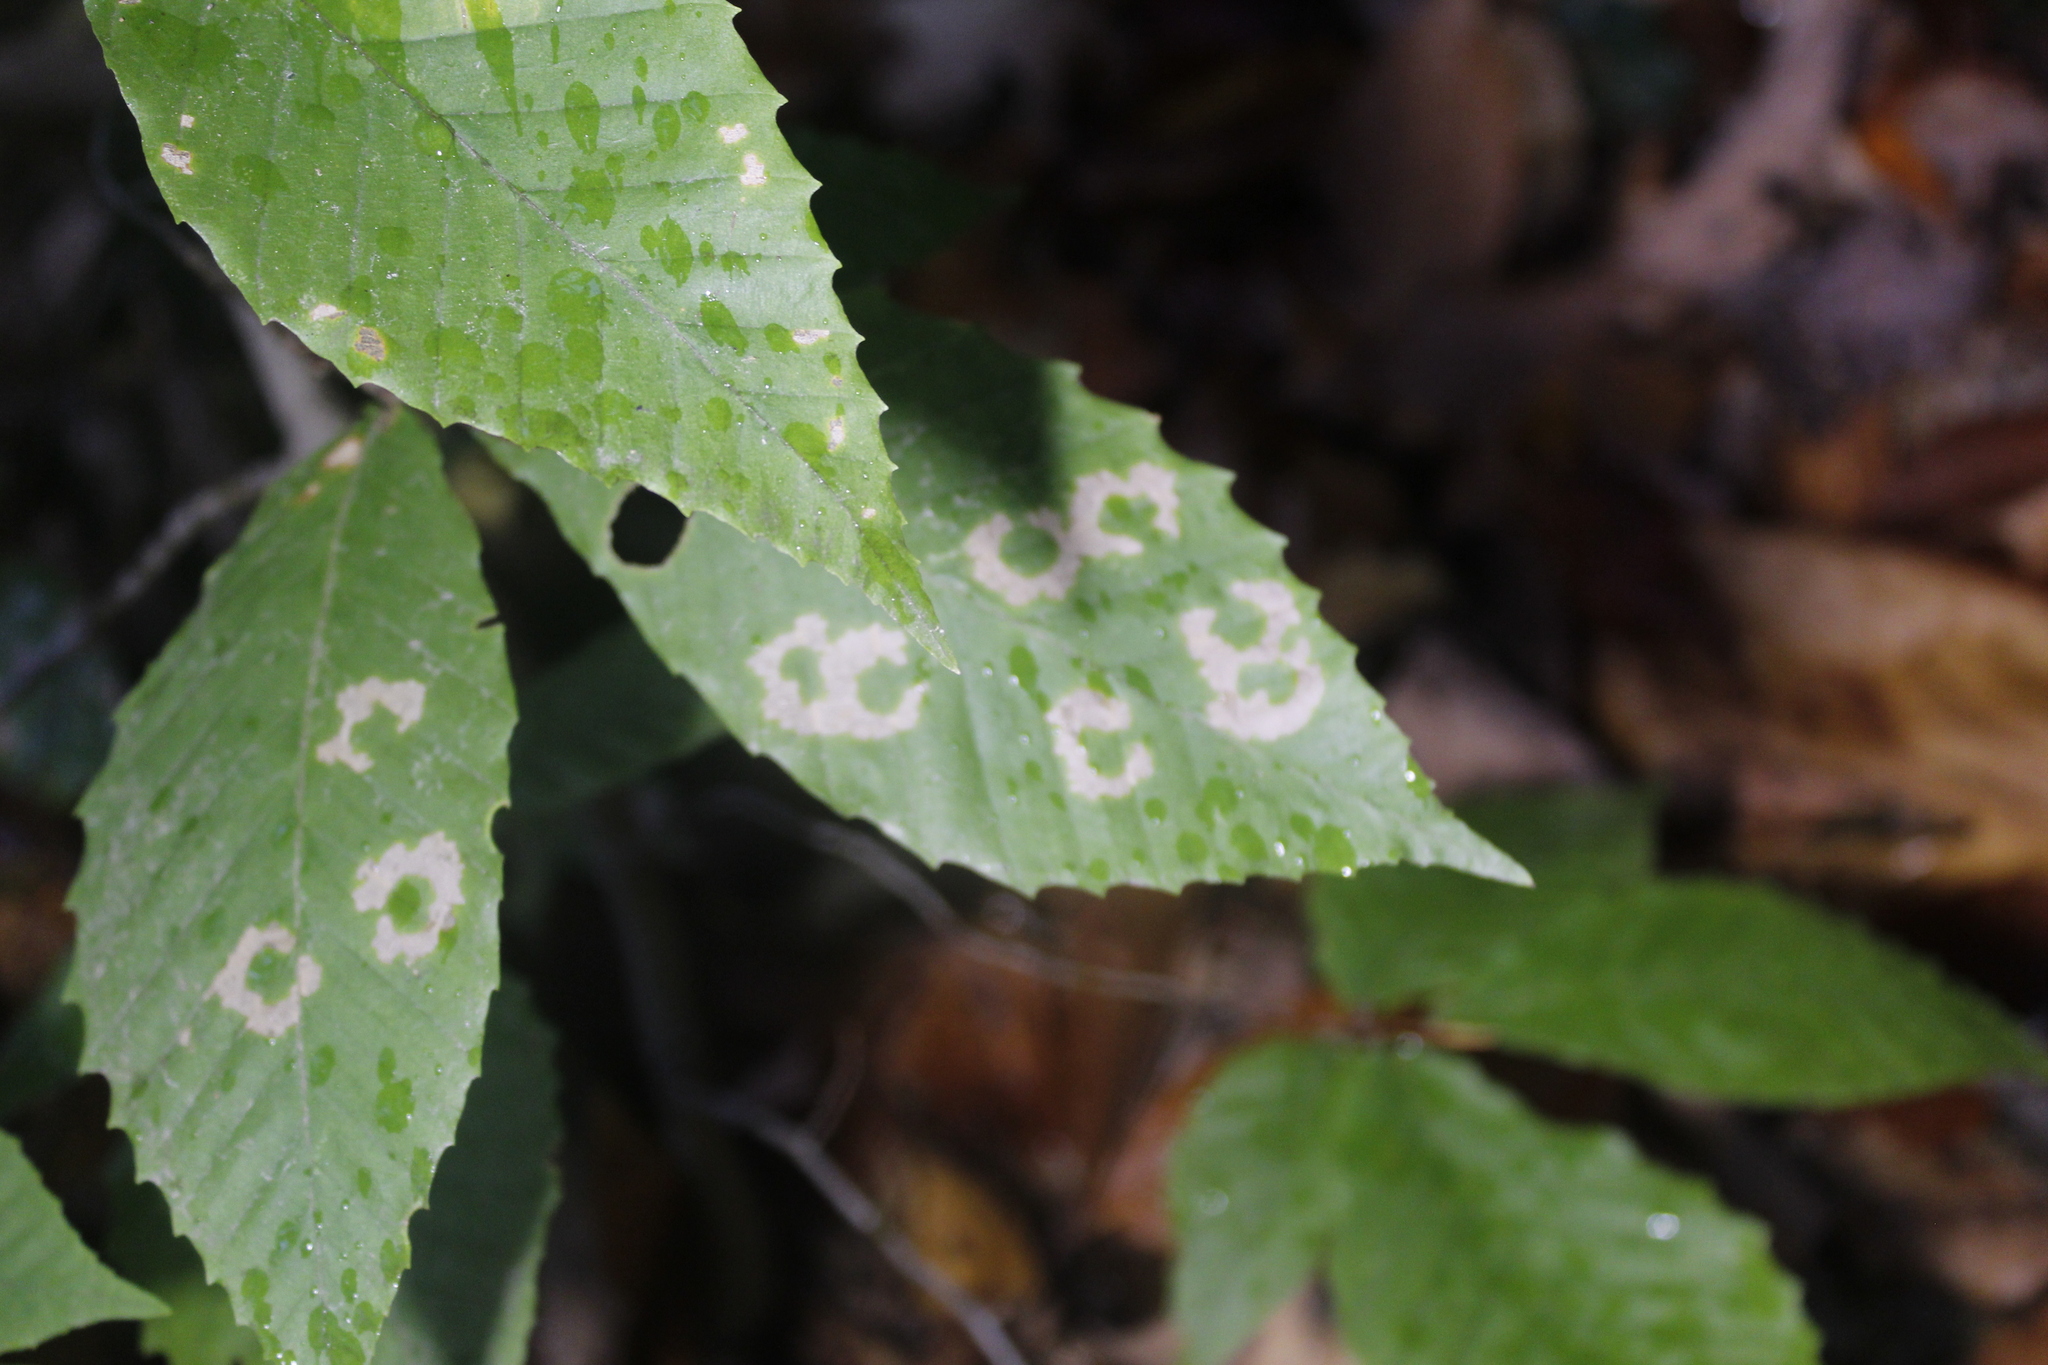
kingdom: Plantae
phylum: Tracheophyta
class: Magnoliopsida
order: Fagales
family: Fagaceae
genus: Fagus
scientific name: Fagus grandifolia
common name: American beech
